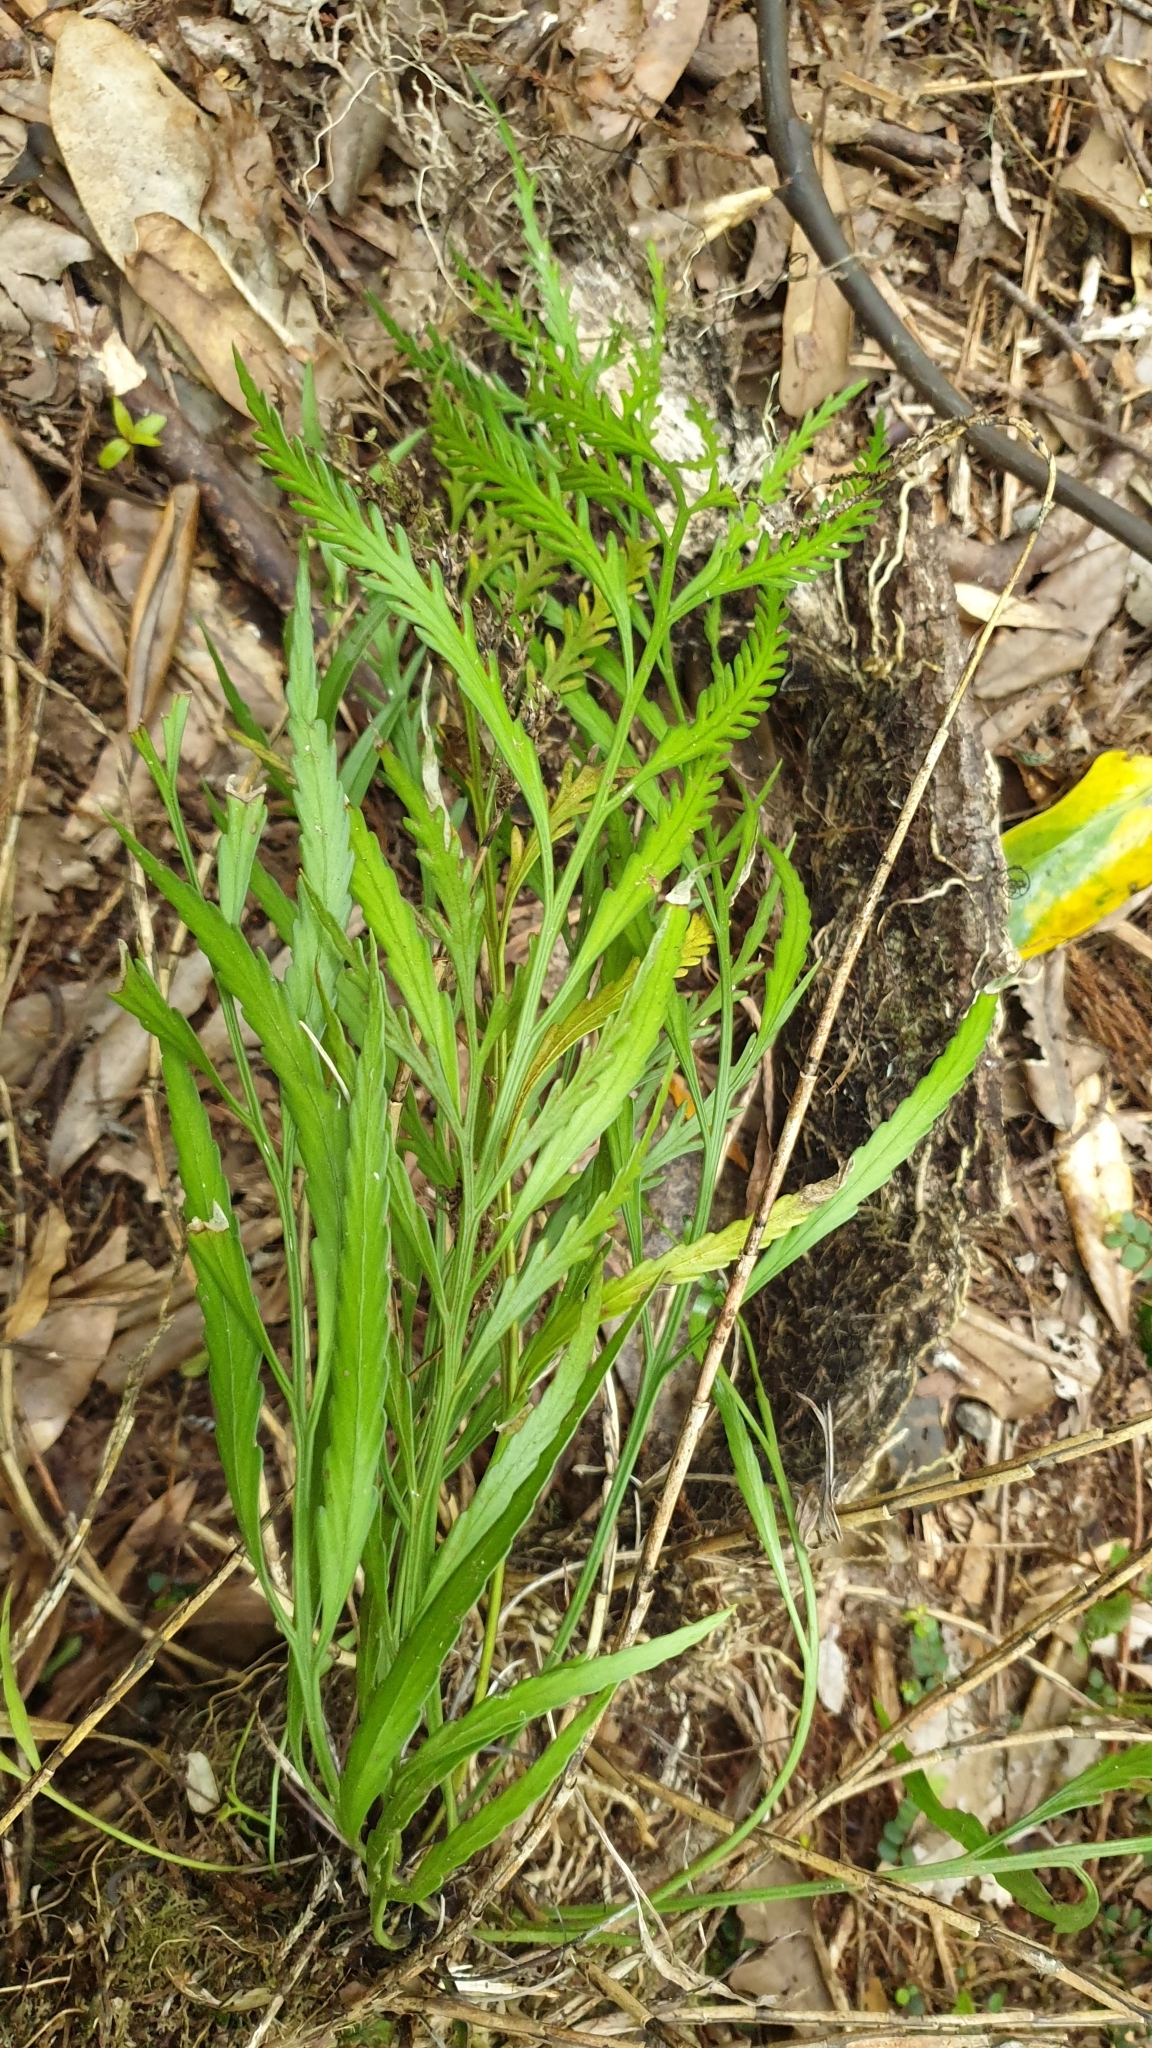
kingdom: Plantae
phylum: Tracheophyta
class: Polypodiopsida
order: Polypodiales
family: Aspleniaceae
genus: Asplenium
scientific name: Asplenium flaccidum
